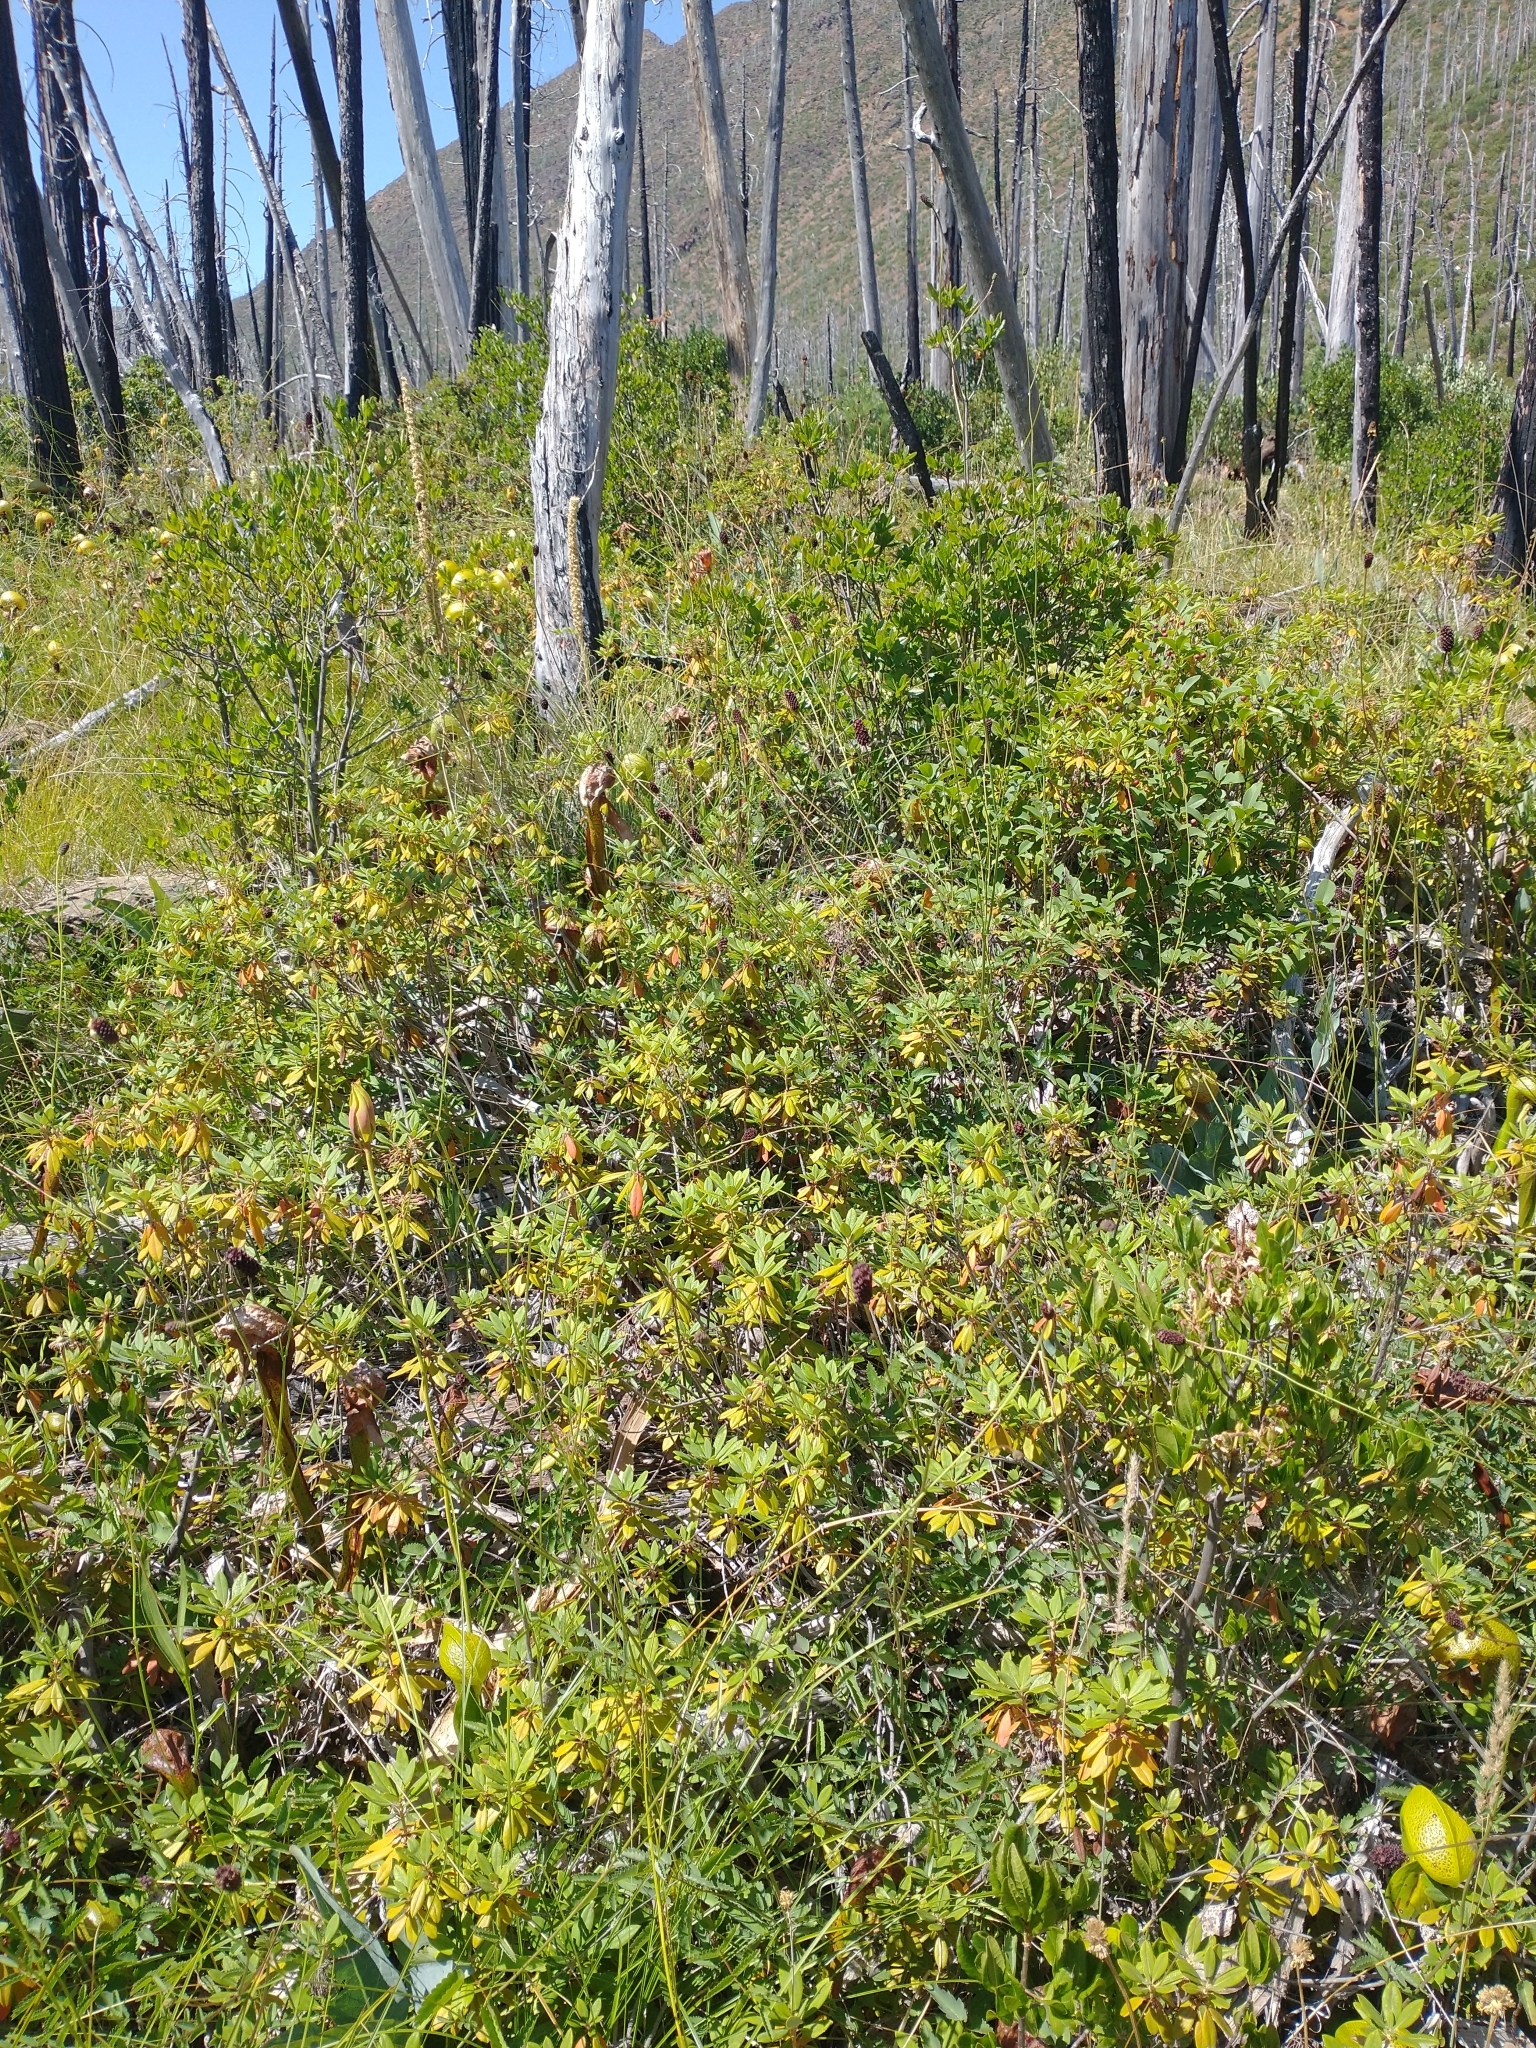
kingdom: Plantae
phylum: Tracheophyta
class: Magnoliopsida
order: Ericales
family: Sarraceniaceae
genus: Darlingtonia
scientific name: Darlingtonia californica
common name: California pitcher plant
